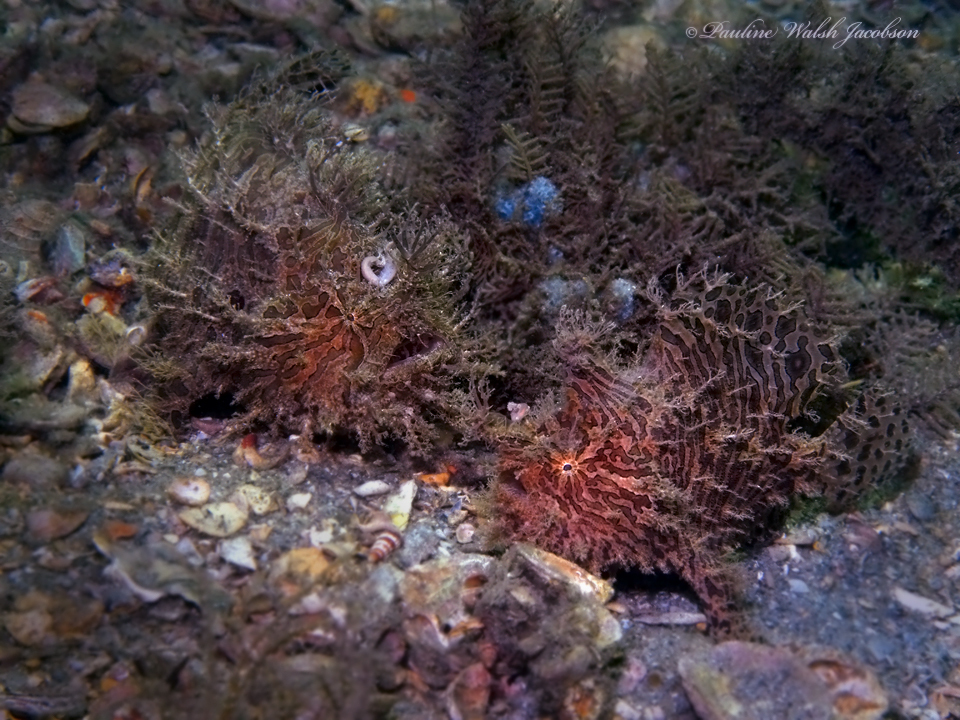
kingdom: Animalia
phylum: Chordata
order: Lophiiformes
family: Antennariidae
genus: Antennarius
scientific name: Antennarius striatus
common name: Striated frogfish
